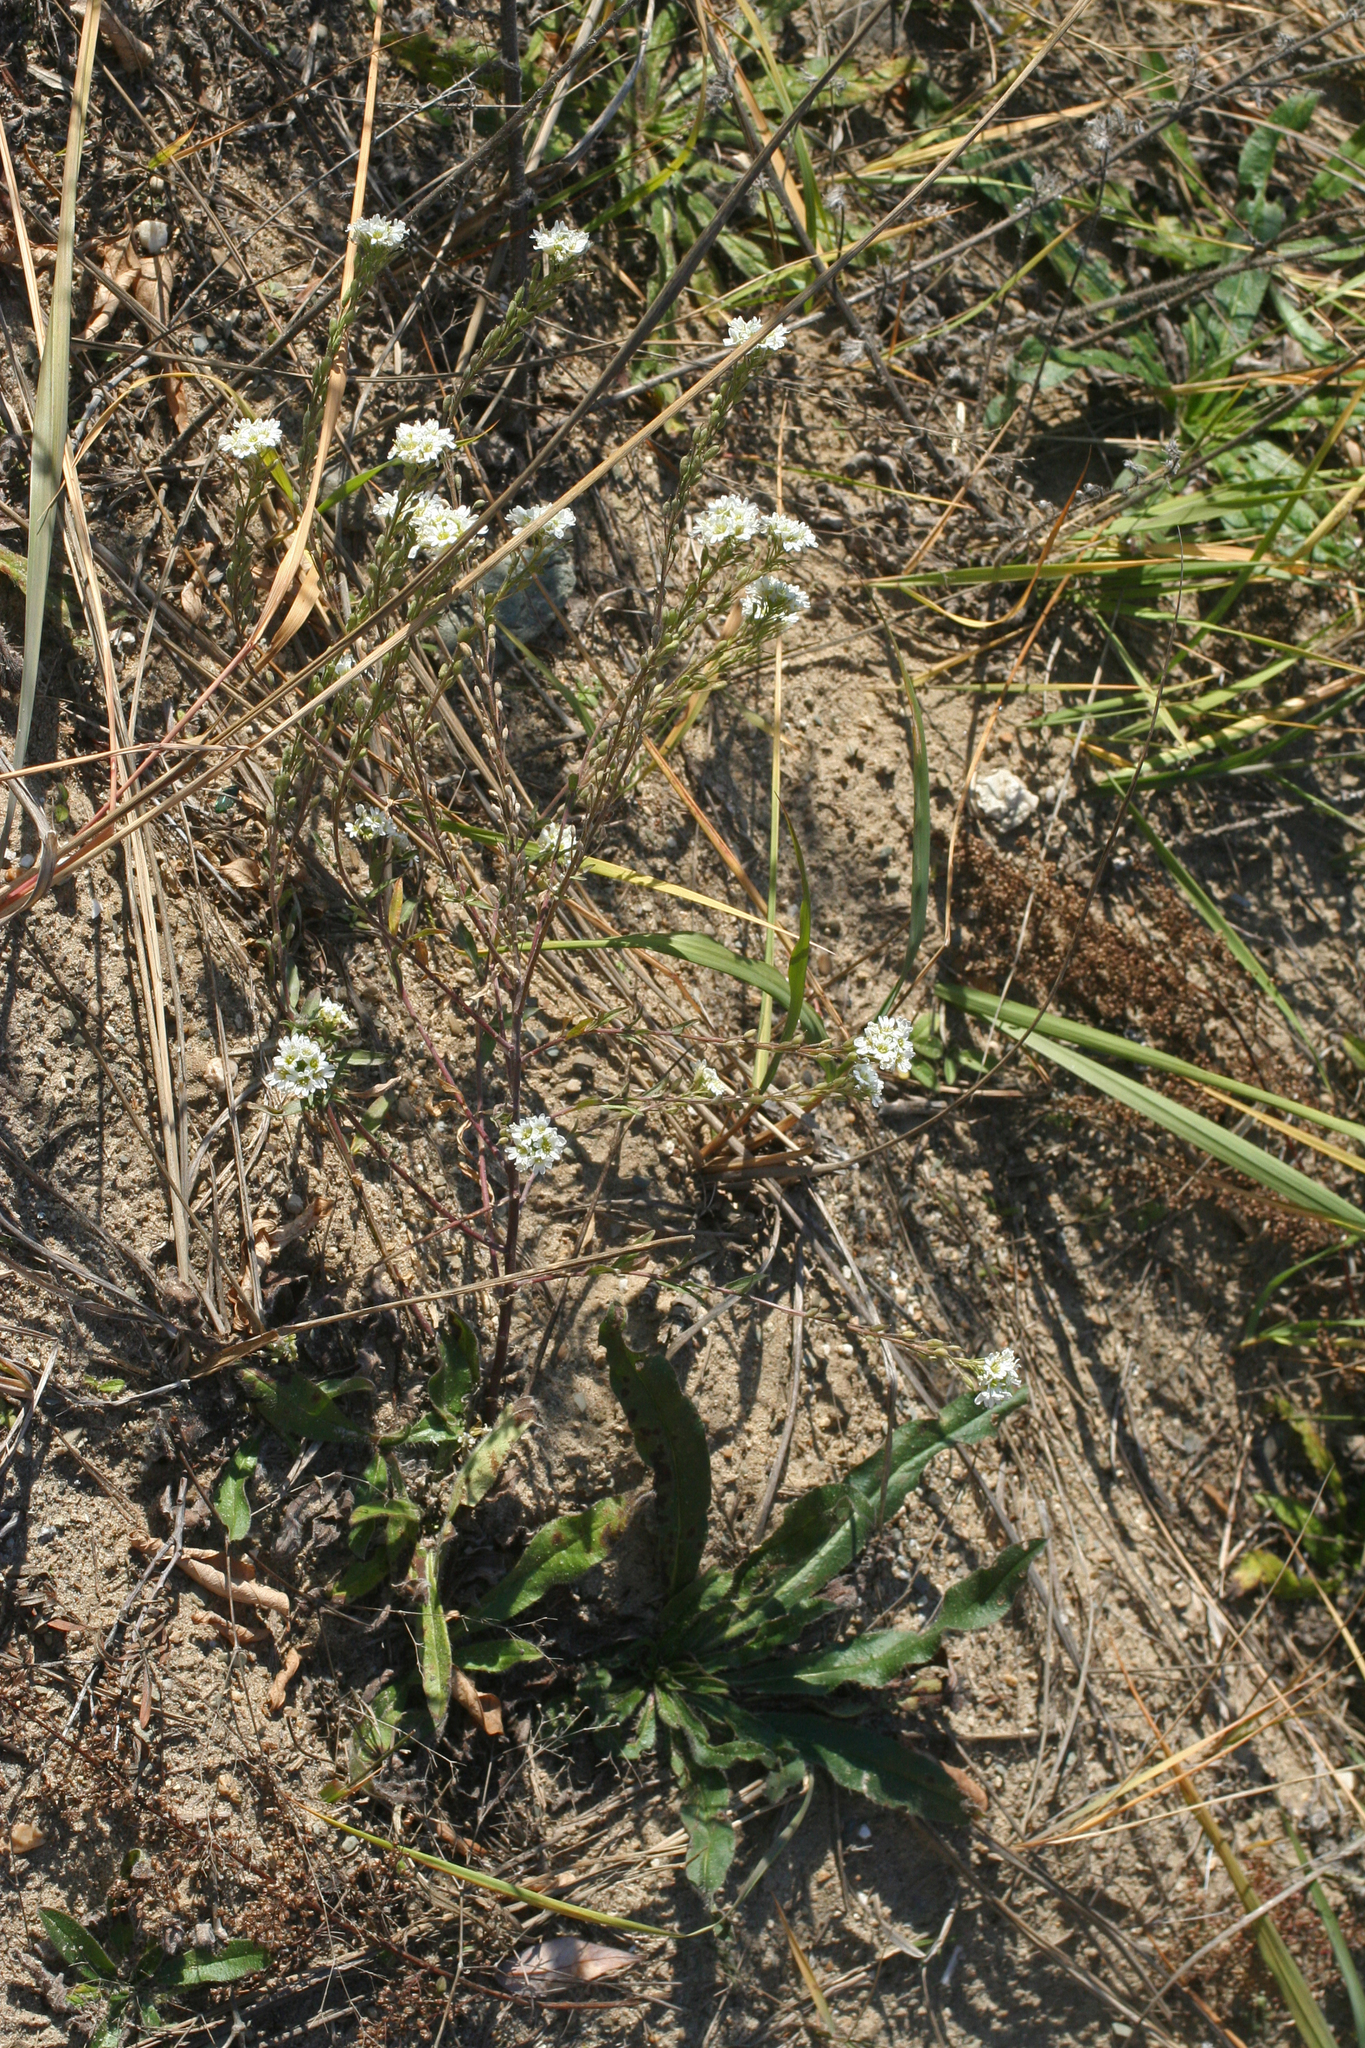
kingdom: Plantae
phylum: Tracheophyta
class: Magnoliopsida
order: Brassicales
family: Brassicaceae
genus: Berteroa
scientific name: Berteroa incana
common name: Hoary alison
